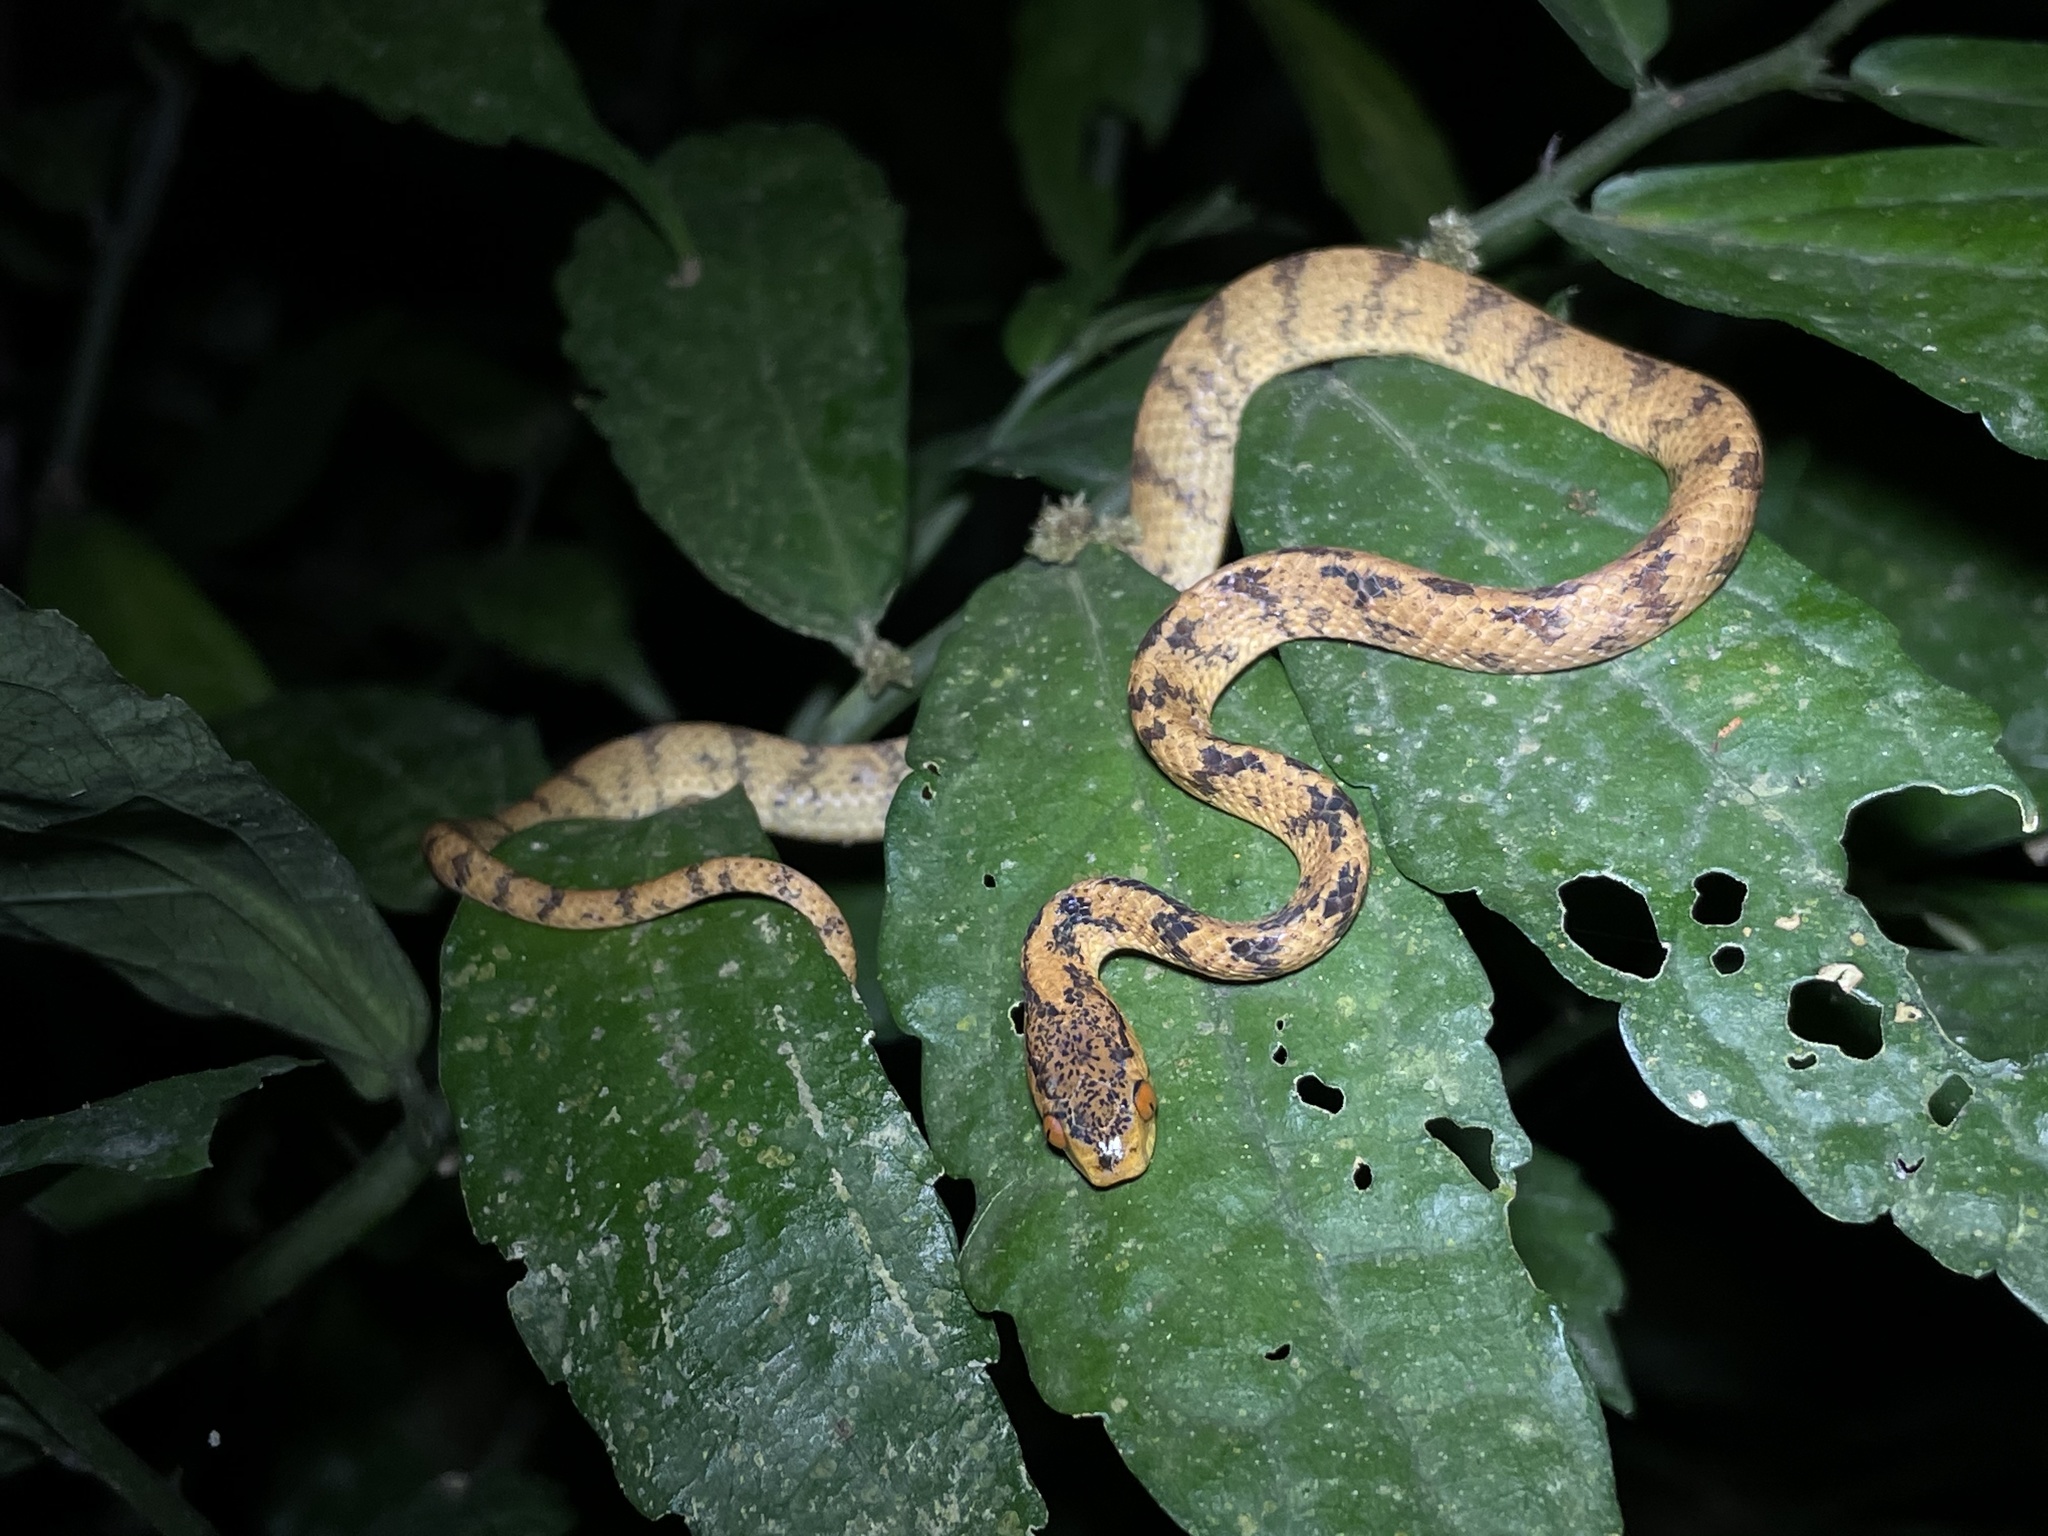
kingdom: Animalia
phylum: Chordata
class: Squamata
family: Pareidae
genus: Pareas
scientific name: Pareas chinensis
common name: Chinese slug snake
